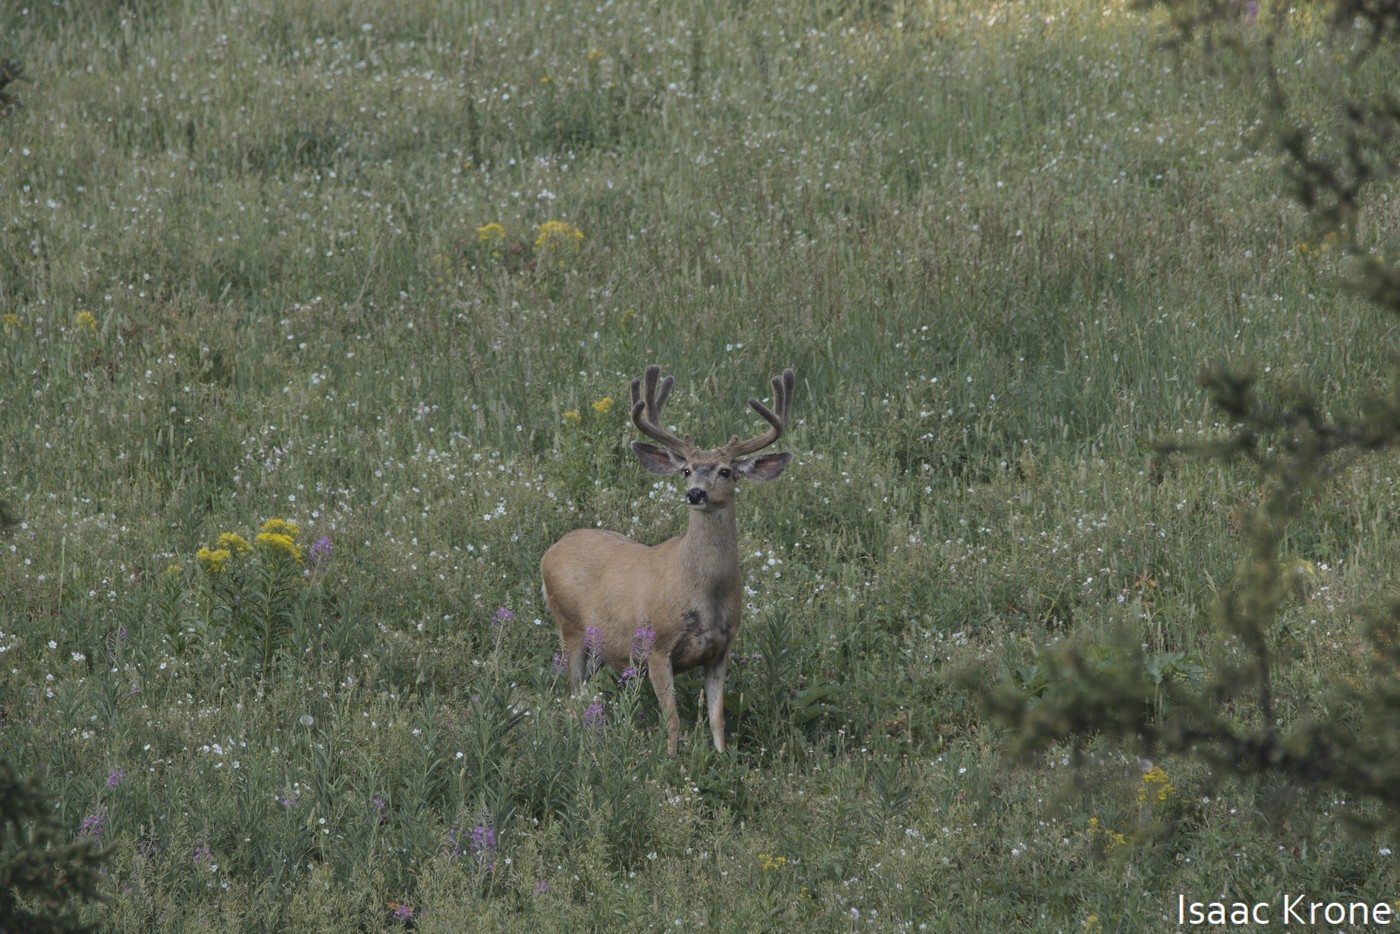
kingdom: Animalia
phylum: Chordata
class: Mammalia
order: Artiodactyla
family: Cervidae
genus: Odocoileus
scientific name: Odocoileus hemionus
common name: Mule deer
